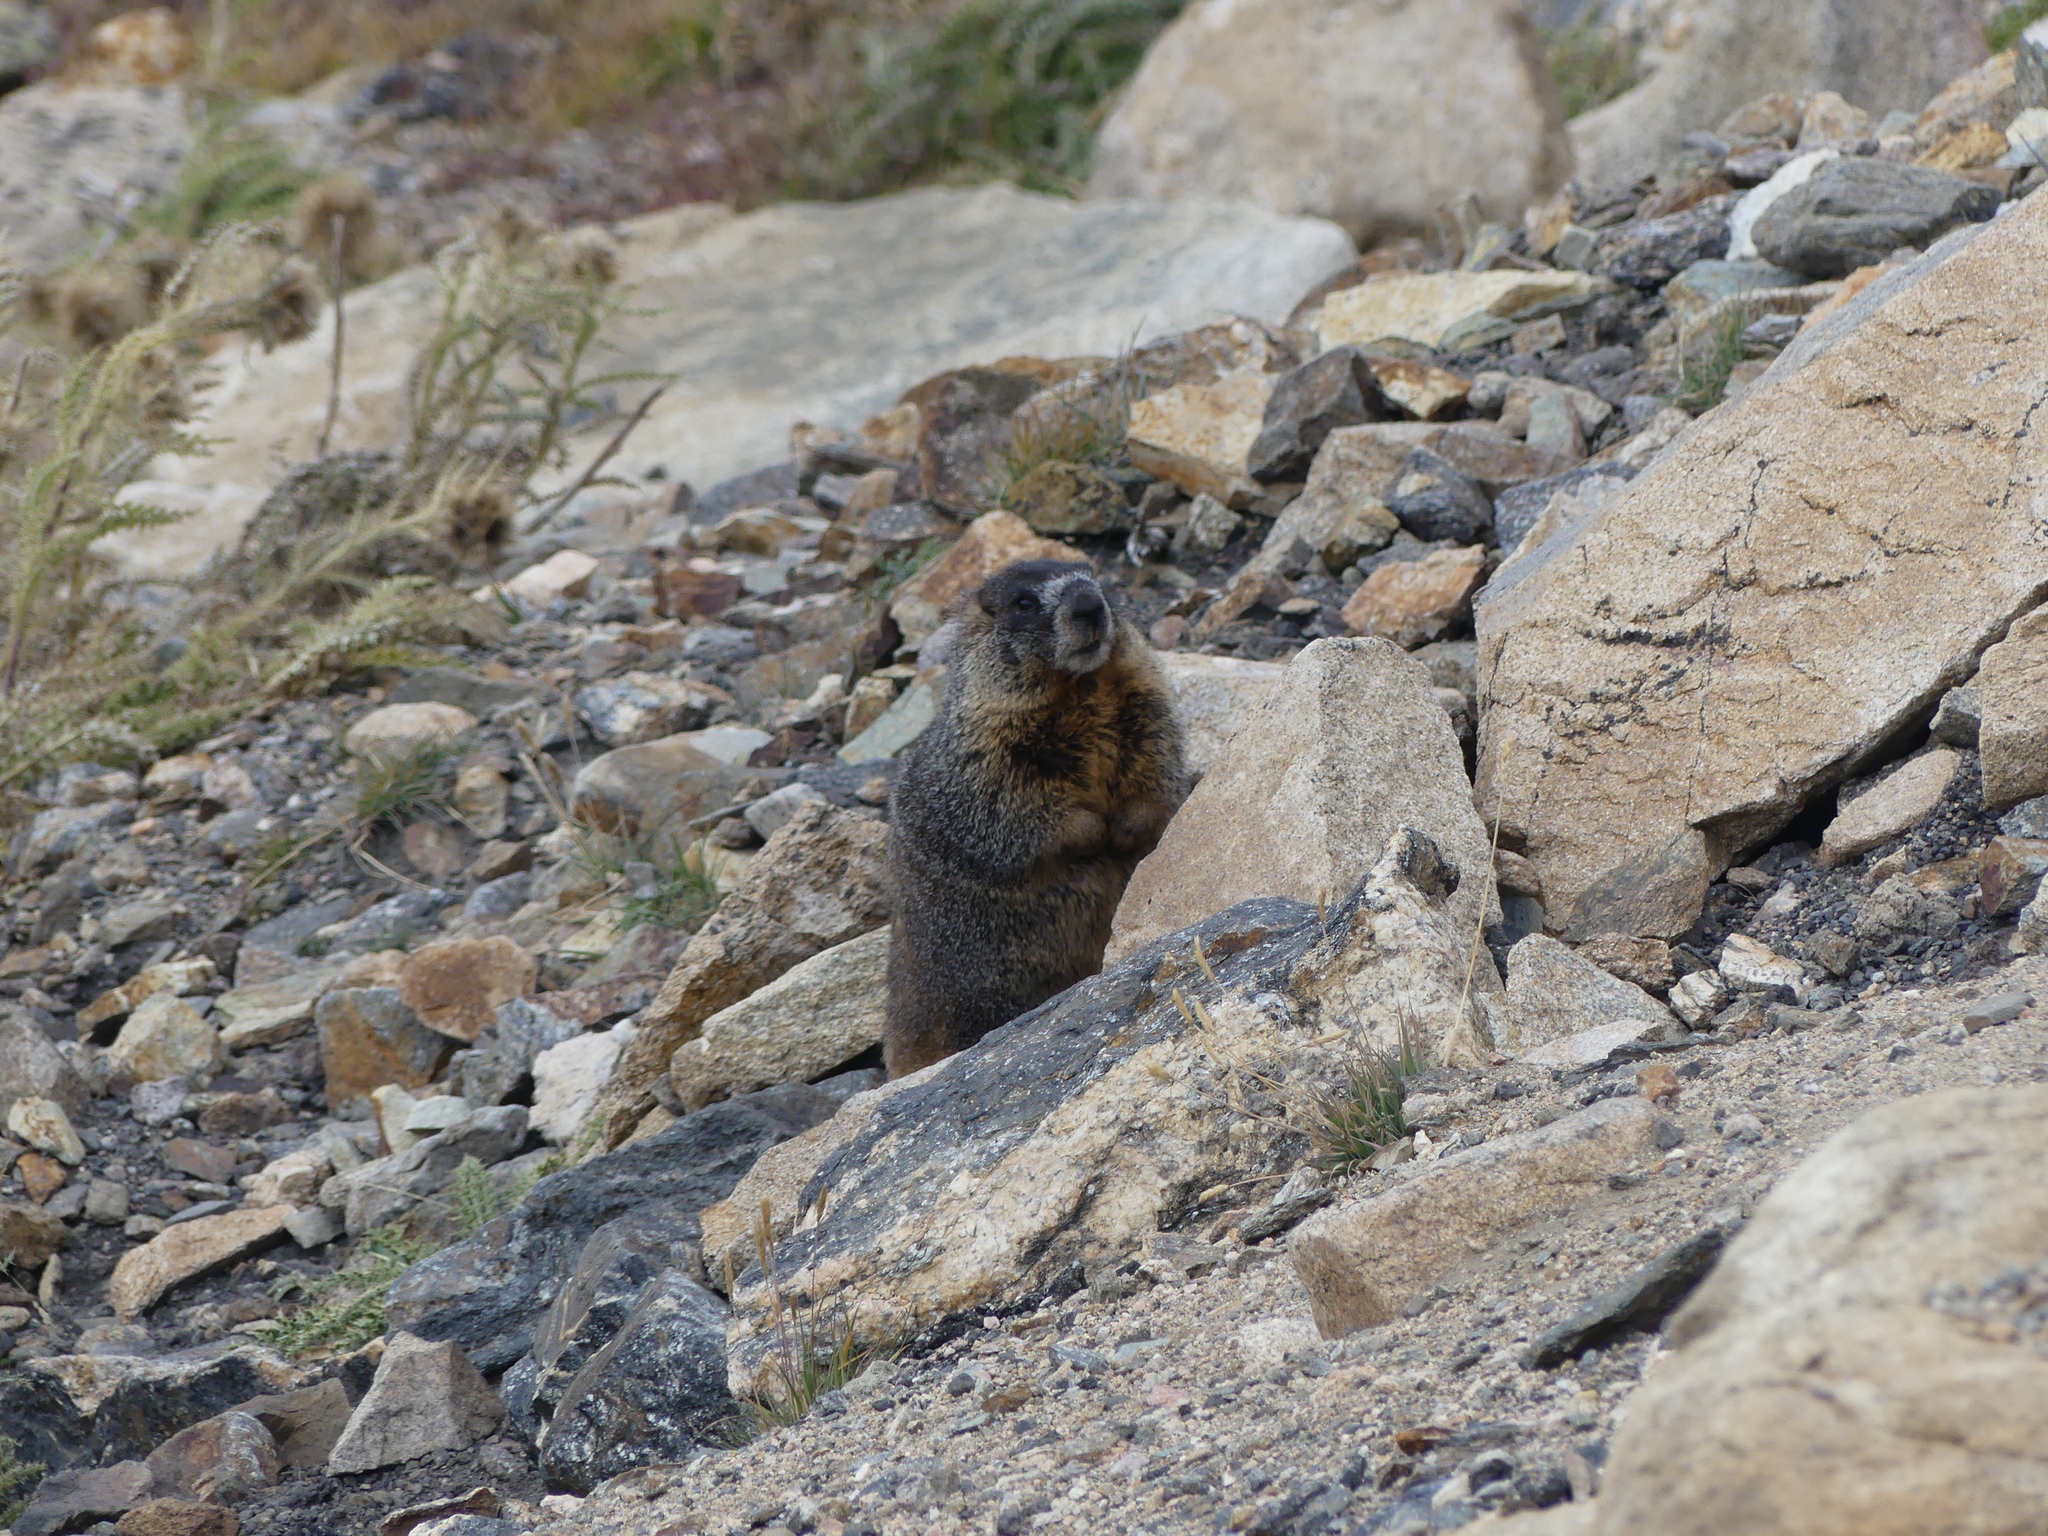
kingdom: Animalia
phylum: Chordata
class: Mammalia
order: Rodentia
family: Sciuridae
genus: Marmota
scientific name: Marmota flaviventris
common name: Yellow-bellied marmot
